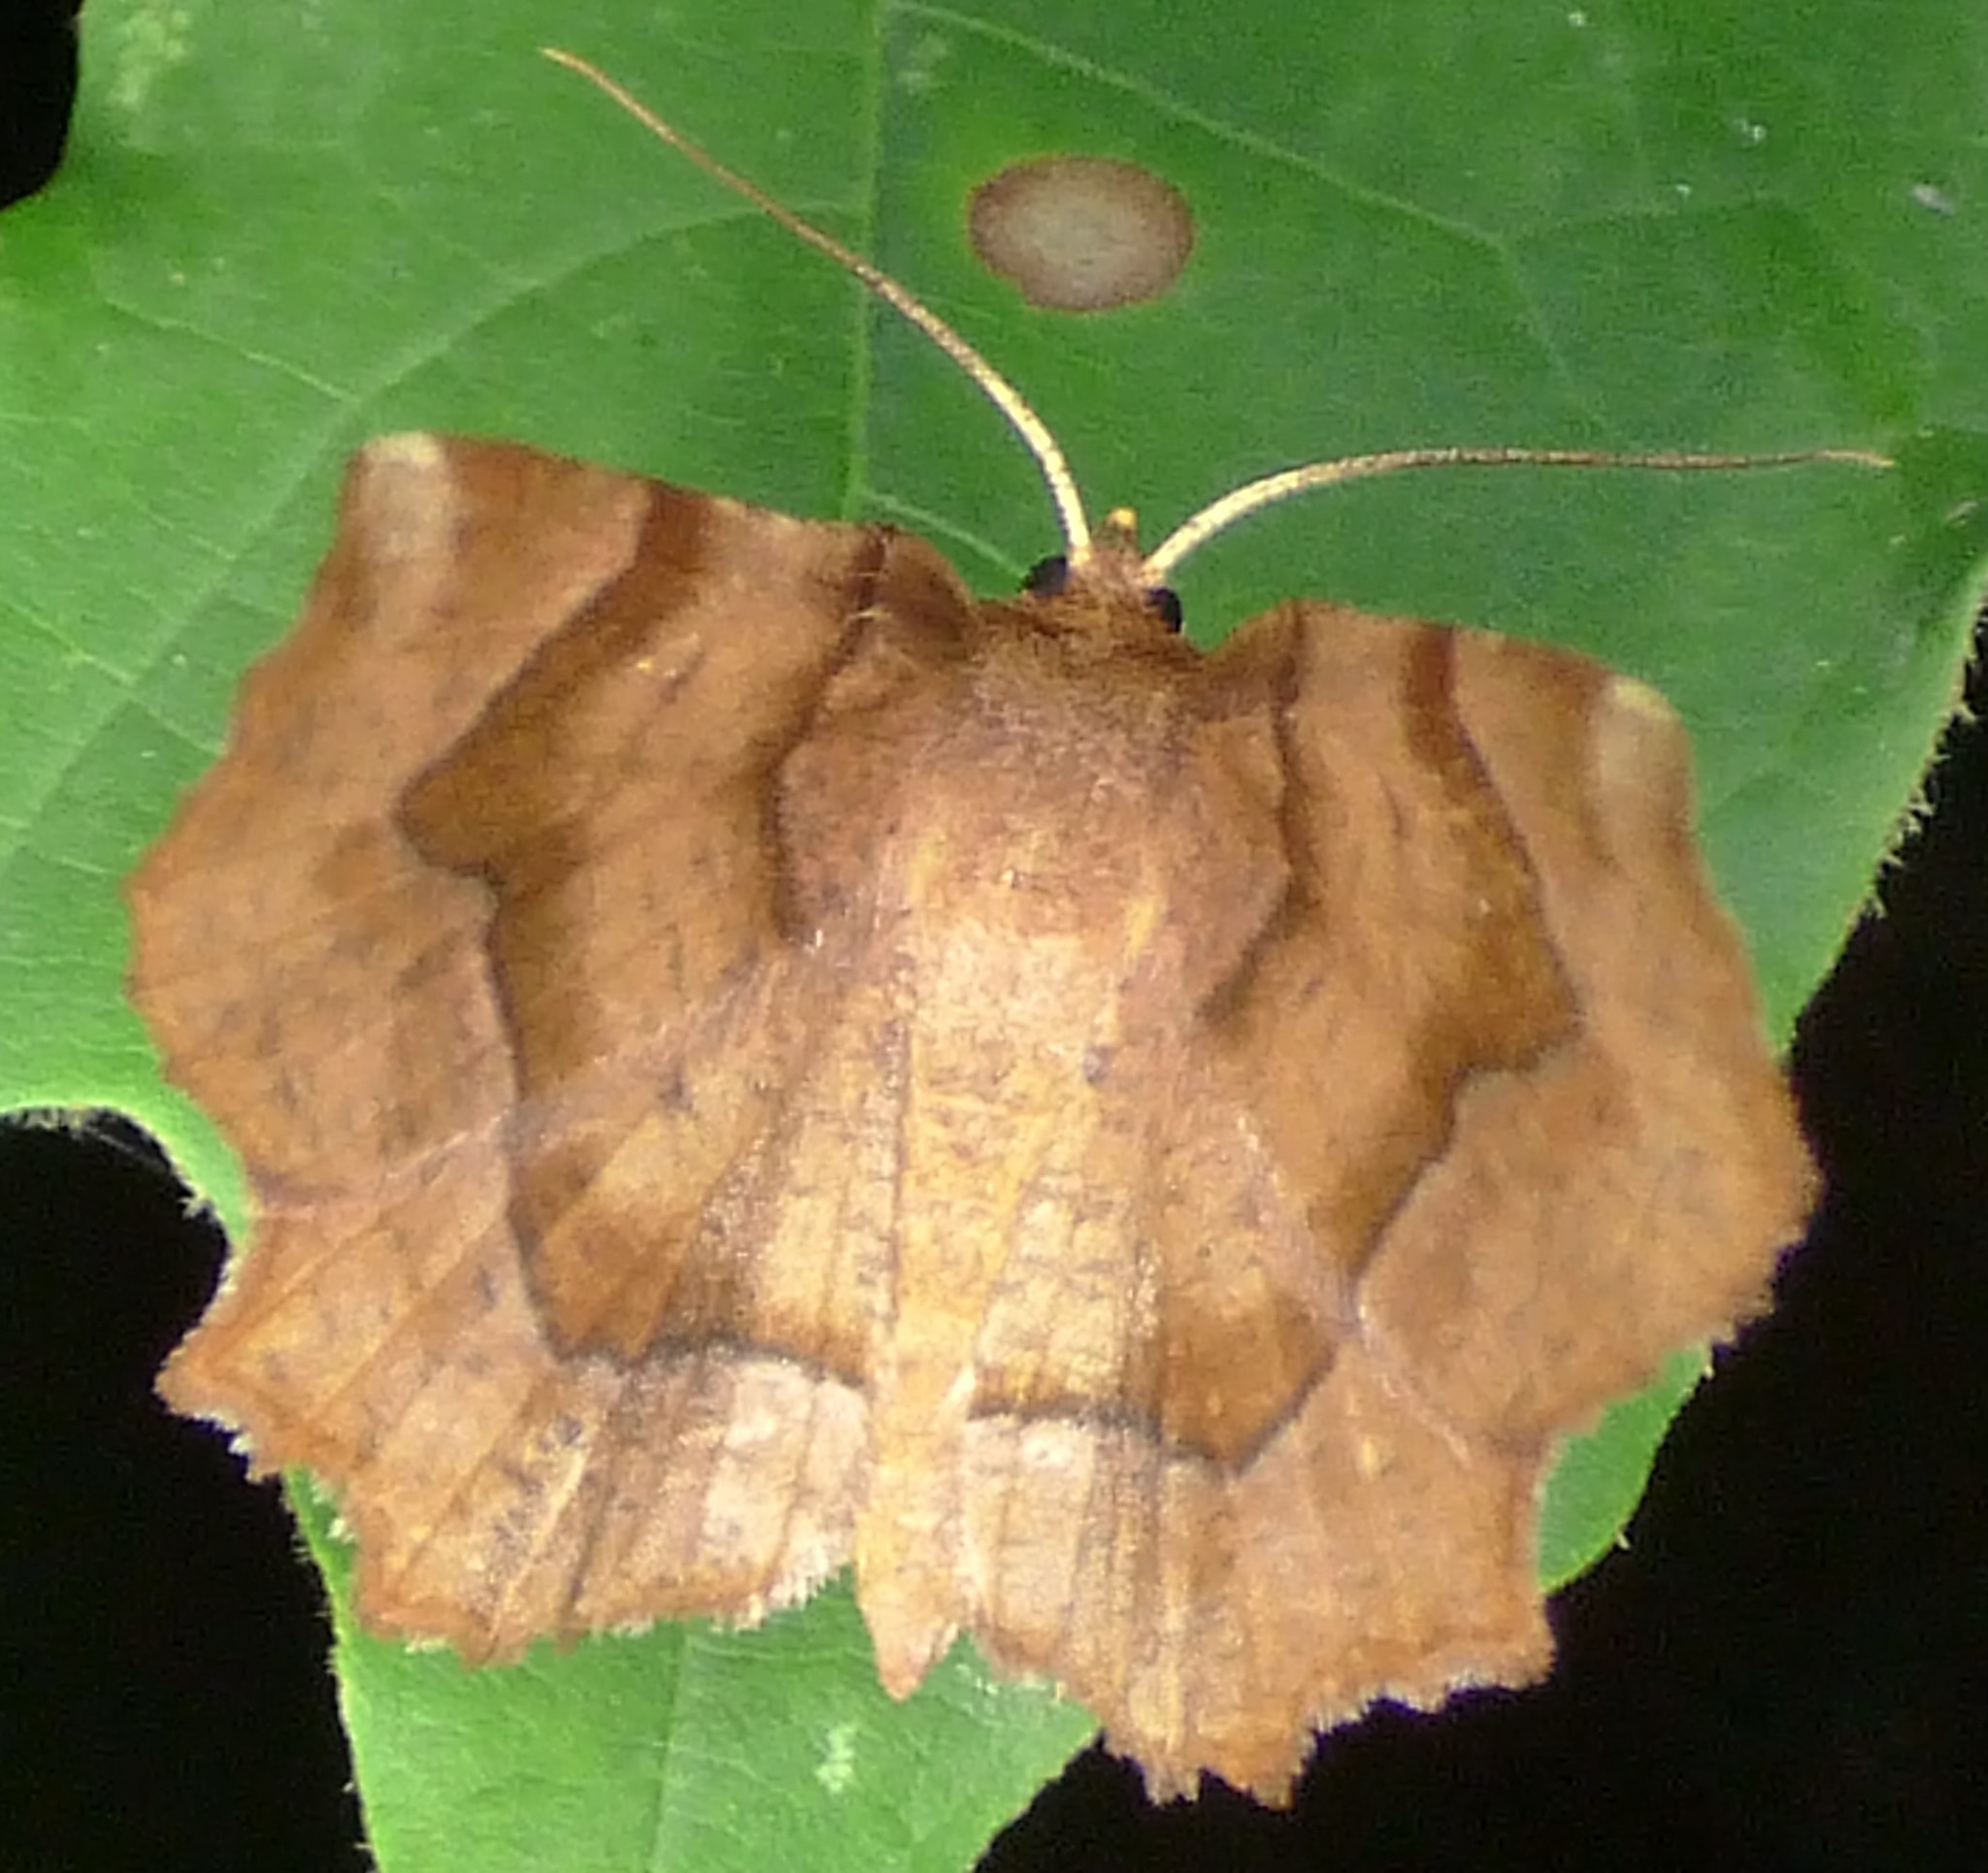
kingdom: Animalia
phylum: Arthropoda
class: Insecta
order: Lepidoptera
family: Geometridae
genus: Metarranthis
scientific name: Metarranthis homuraria
